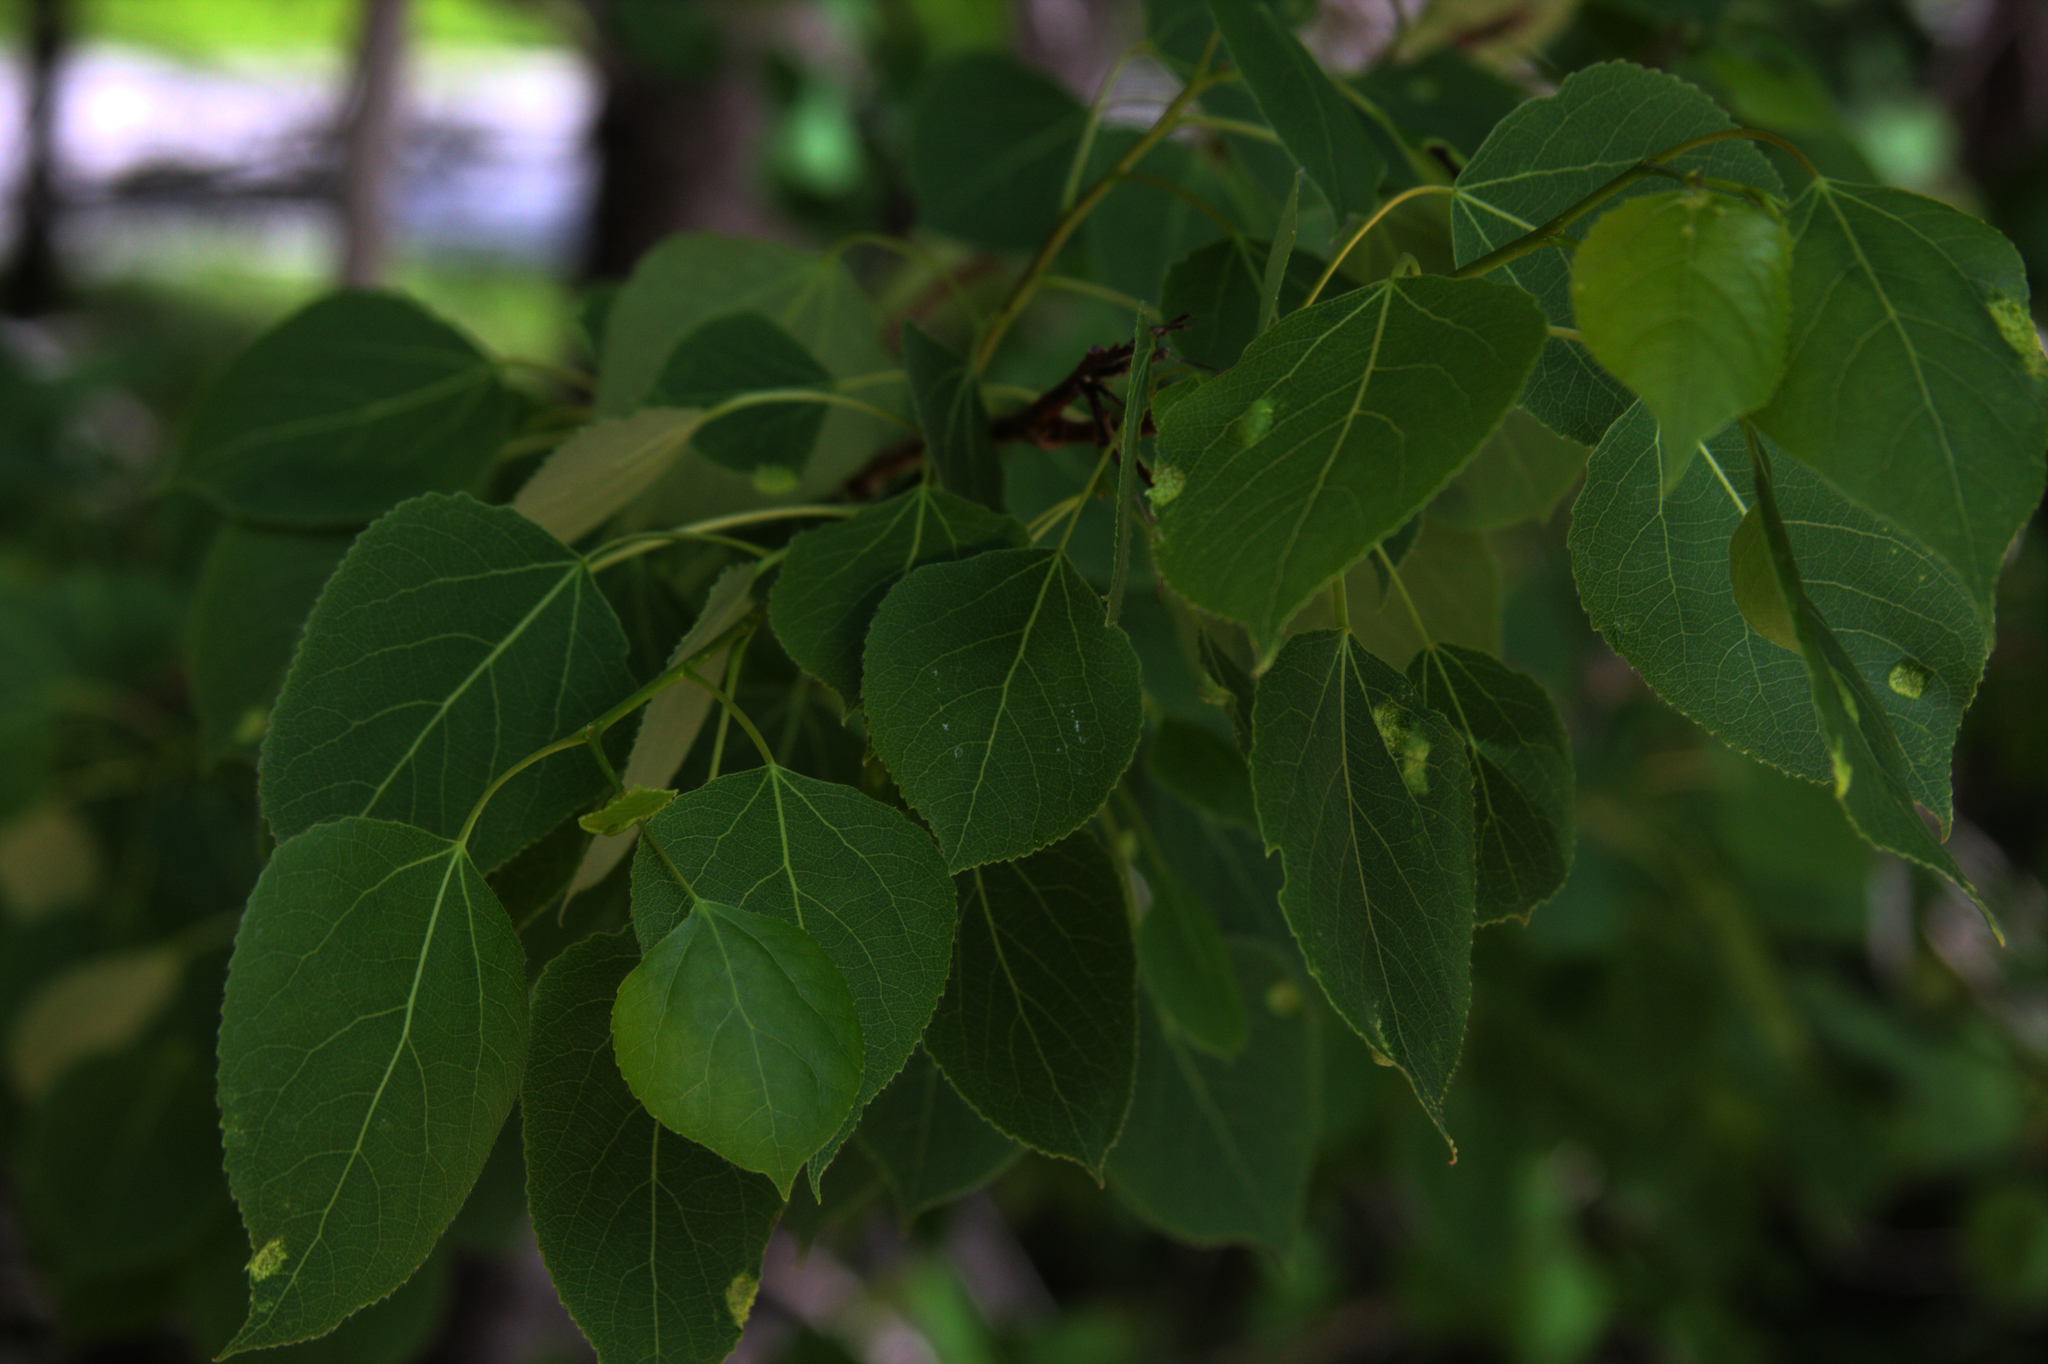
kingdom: Plantae
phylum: Tracheophyta
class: Magnoliopsida
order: Malpighiales
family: Salicaceae
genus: Populus
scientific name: Populus tremuloides
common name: Quaking aspen
